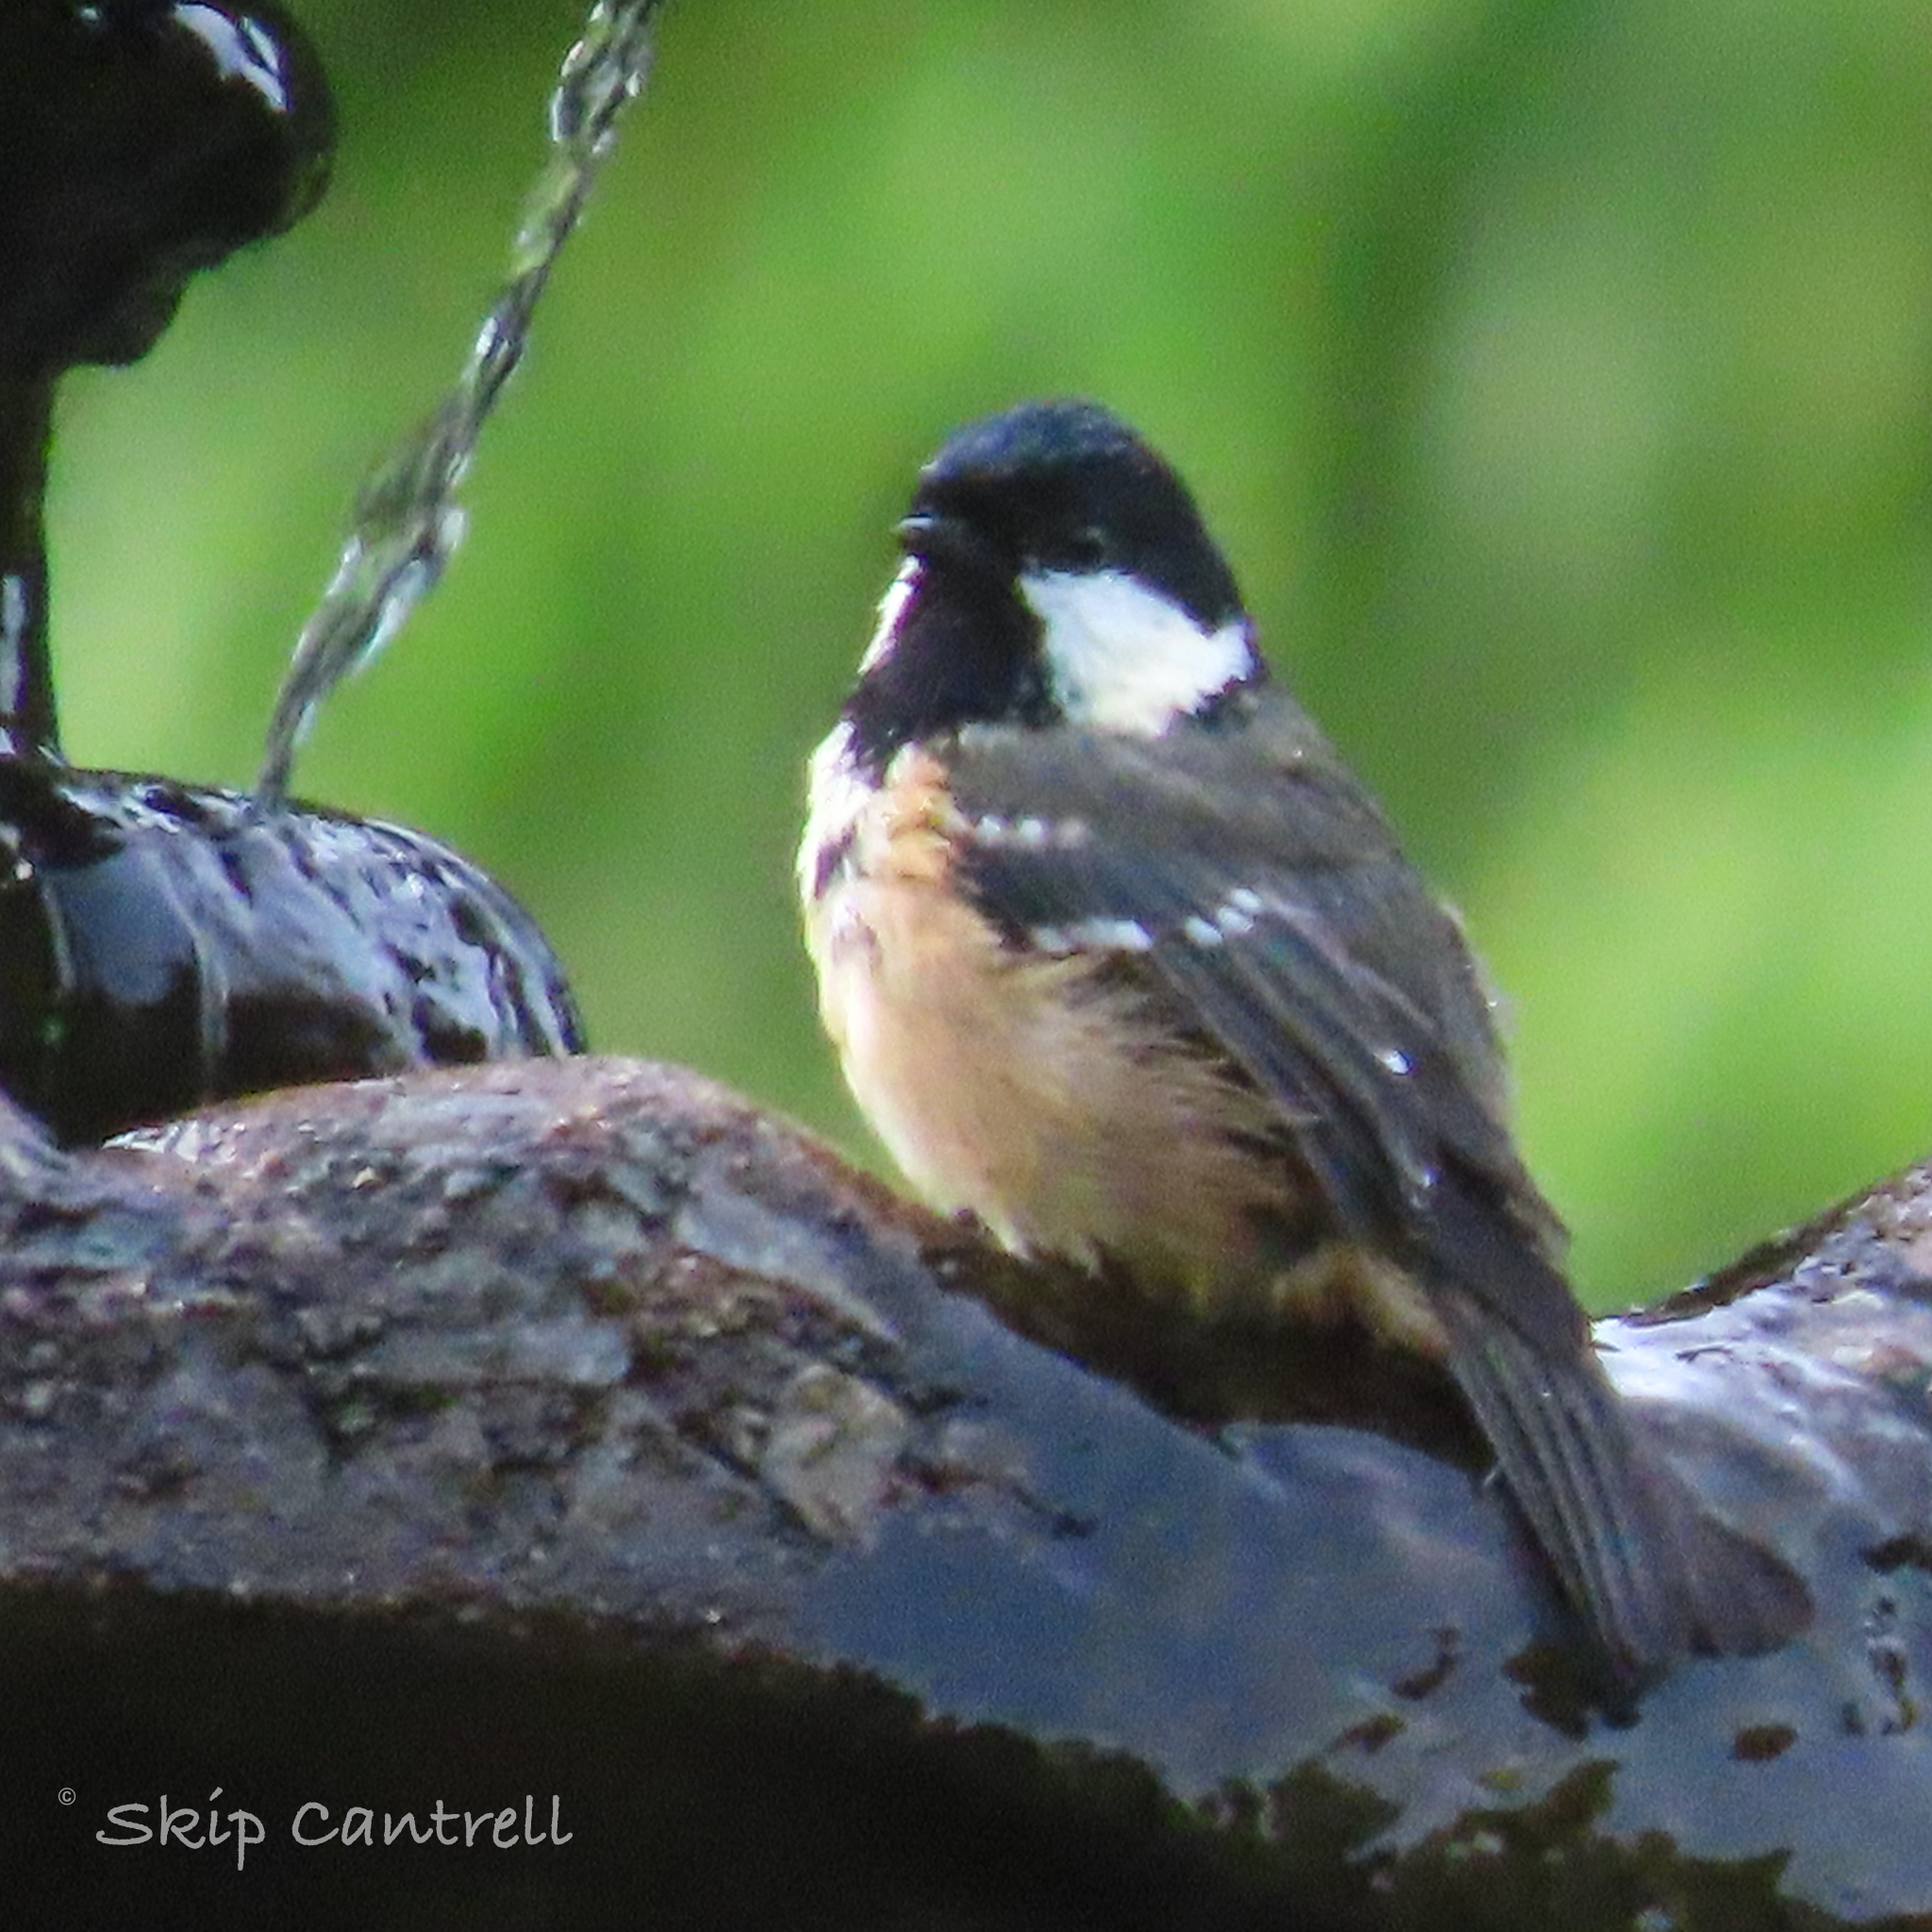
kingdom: Animalia
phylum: Chordata
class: Aves
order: Passeriformes
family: Paridae
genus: Periparus
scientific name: Periparus ater
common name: Coal tit
